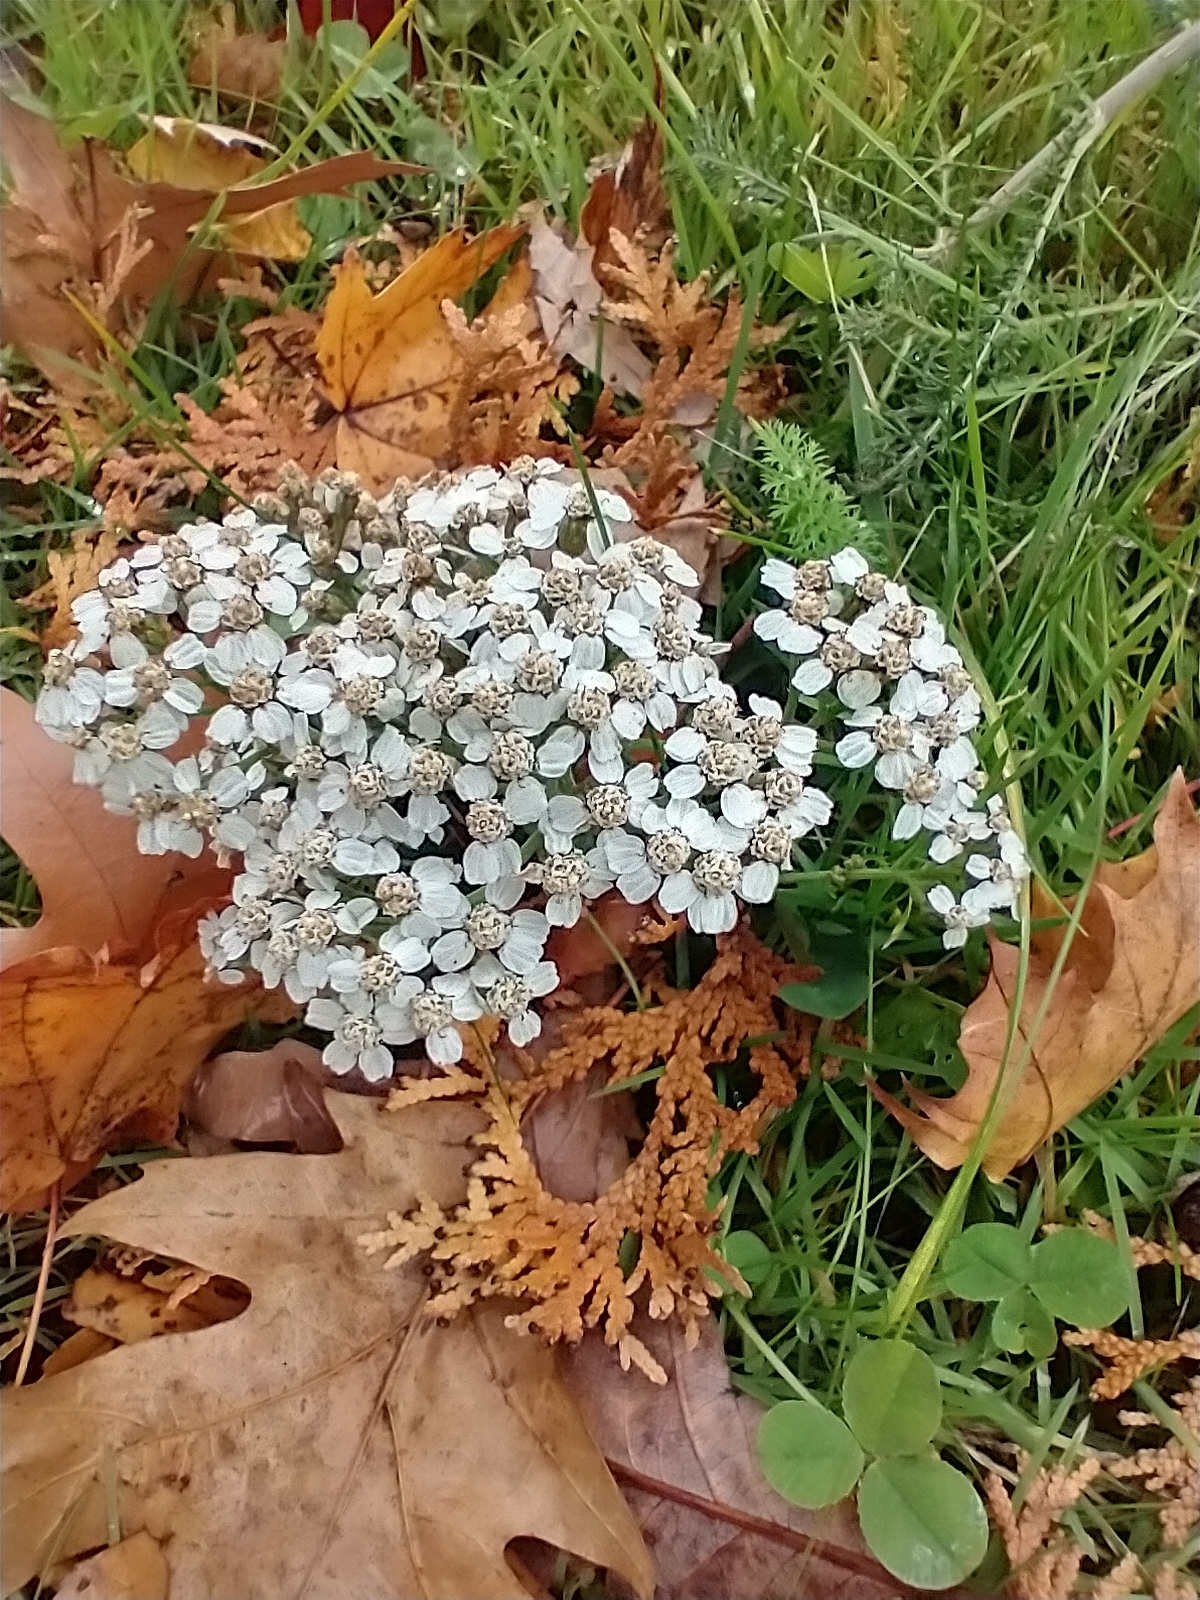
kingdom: Plantae
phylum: Tracheophyta
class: Magnoliopsida
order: Asterales
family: Asteraceae
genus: Achillea
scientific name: Achillea millefolium
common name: Yarrow
